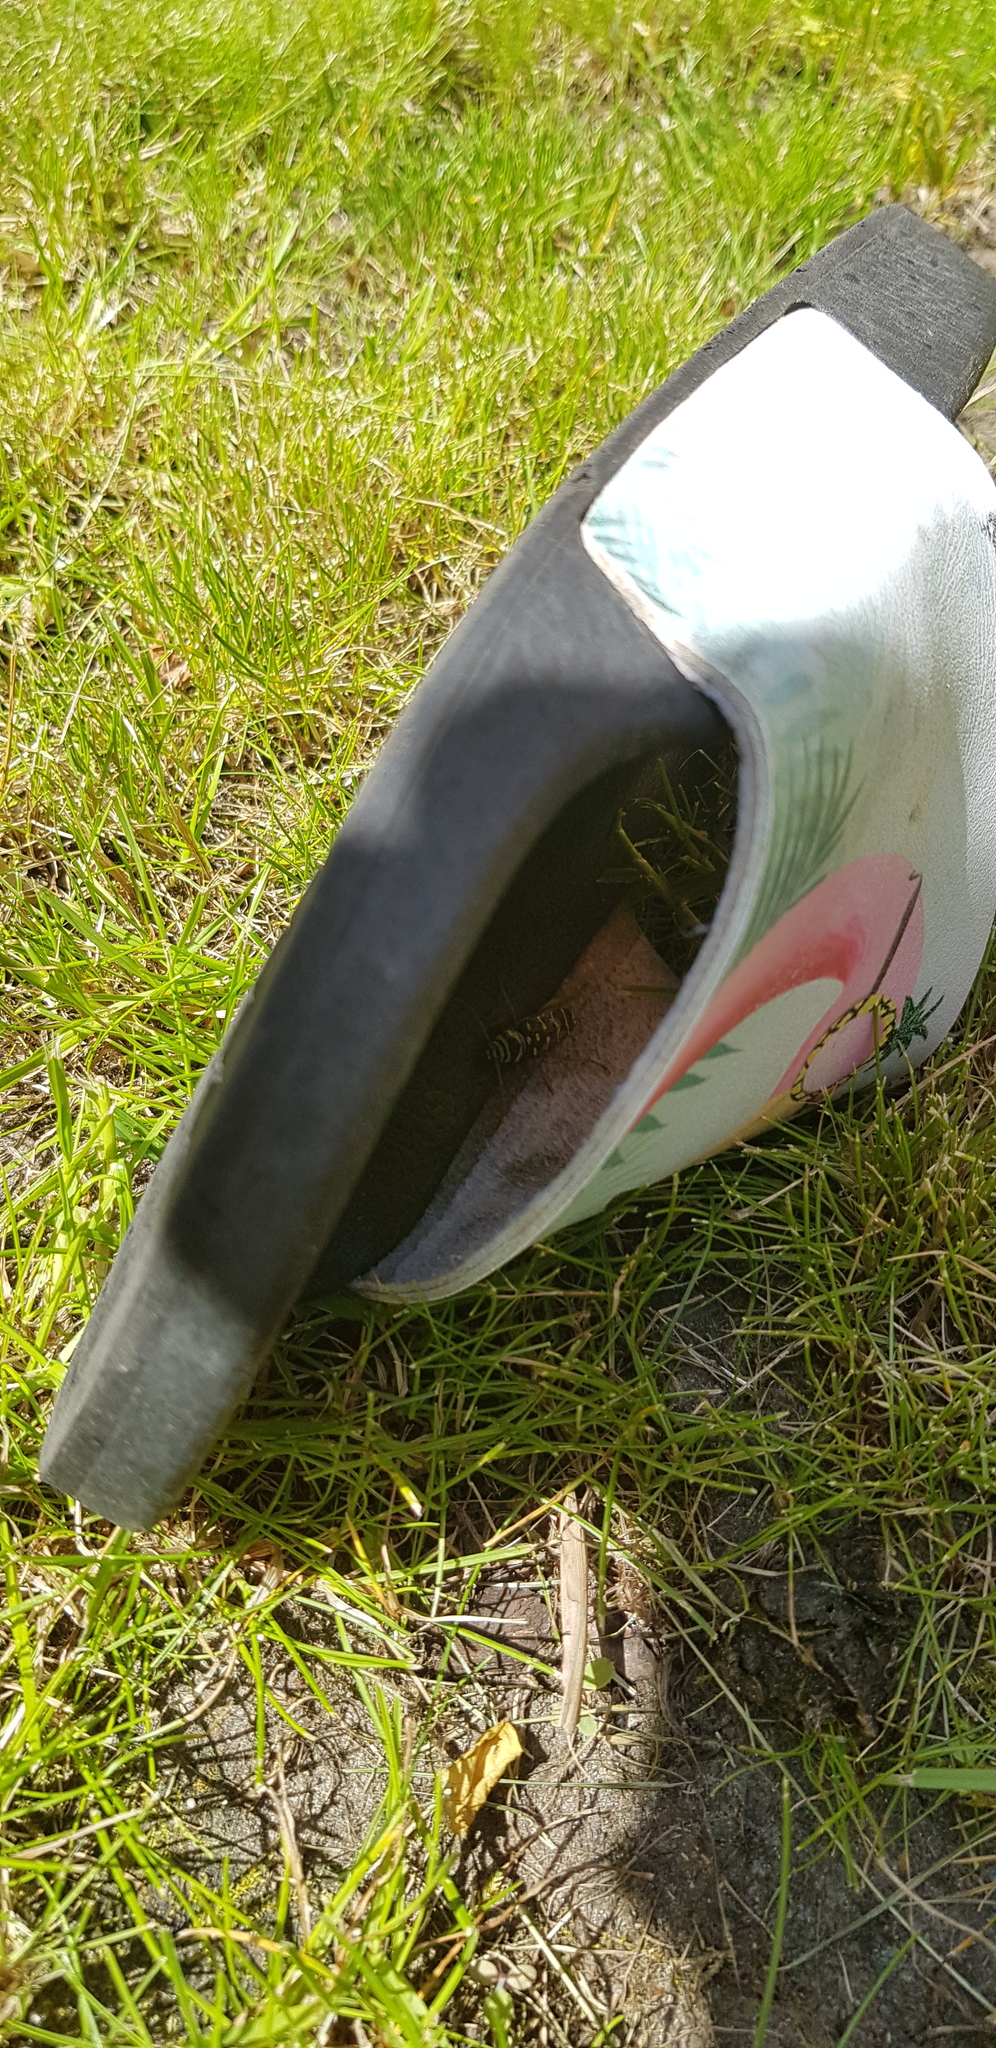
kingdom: Animalia
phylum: Arthropoda
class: Insecta
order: Coleoptera
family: Cerambycidae
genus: Plagionotus
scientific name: Plagionotus arcuatus
